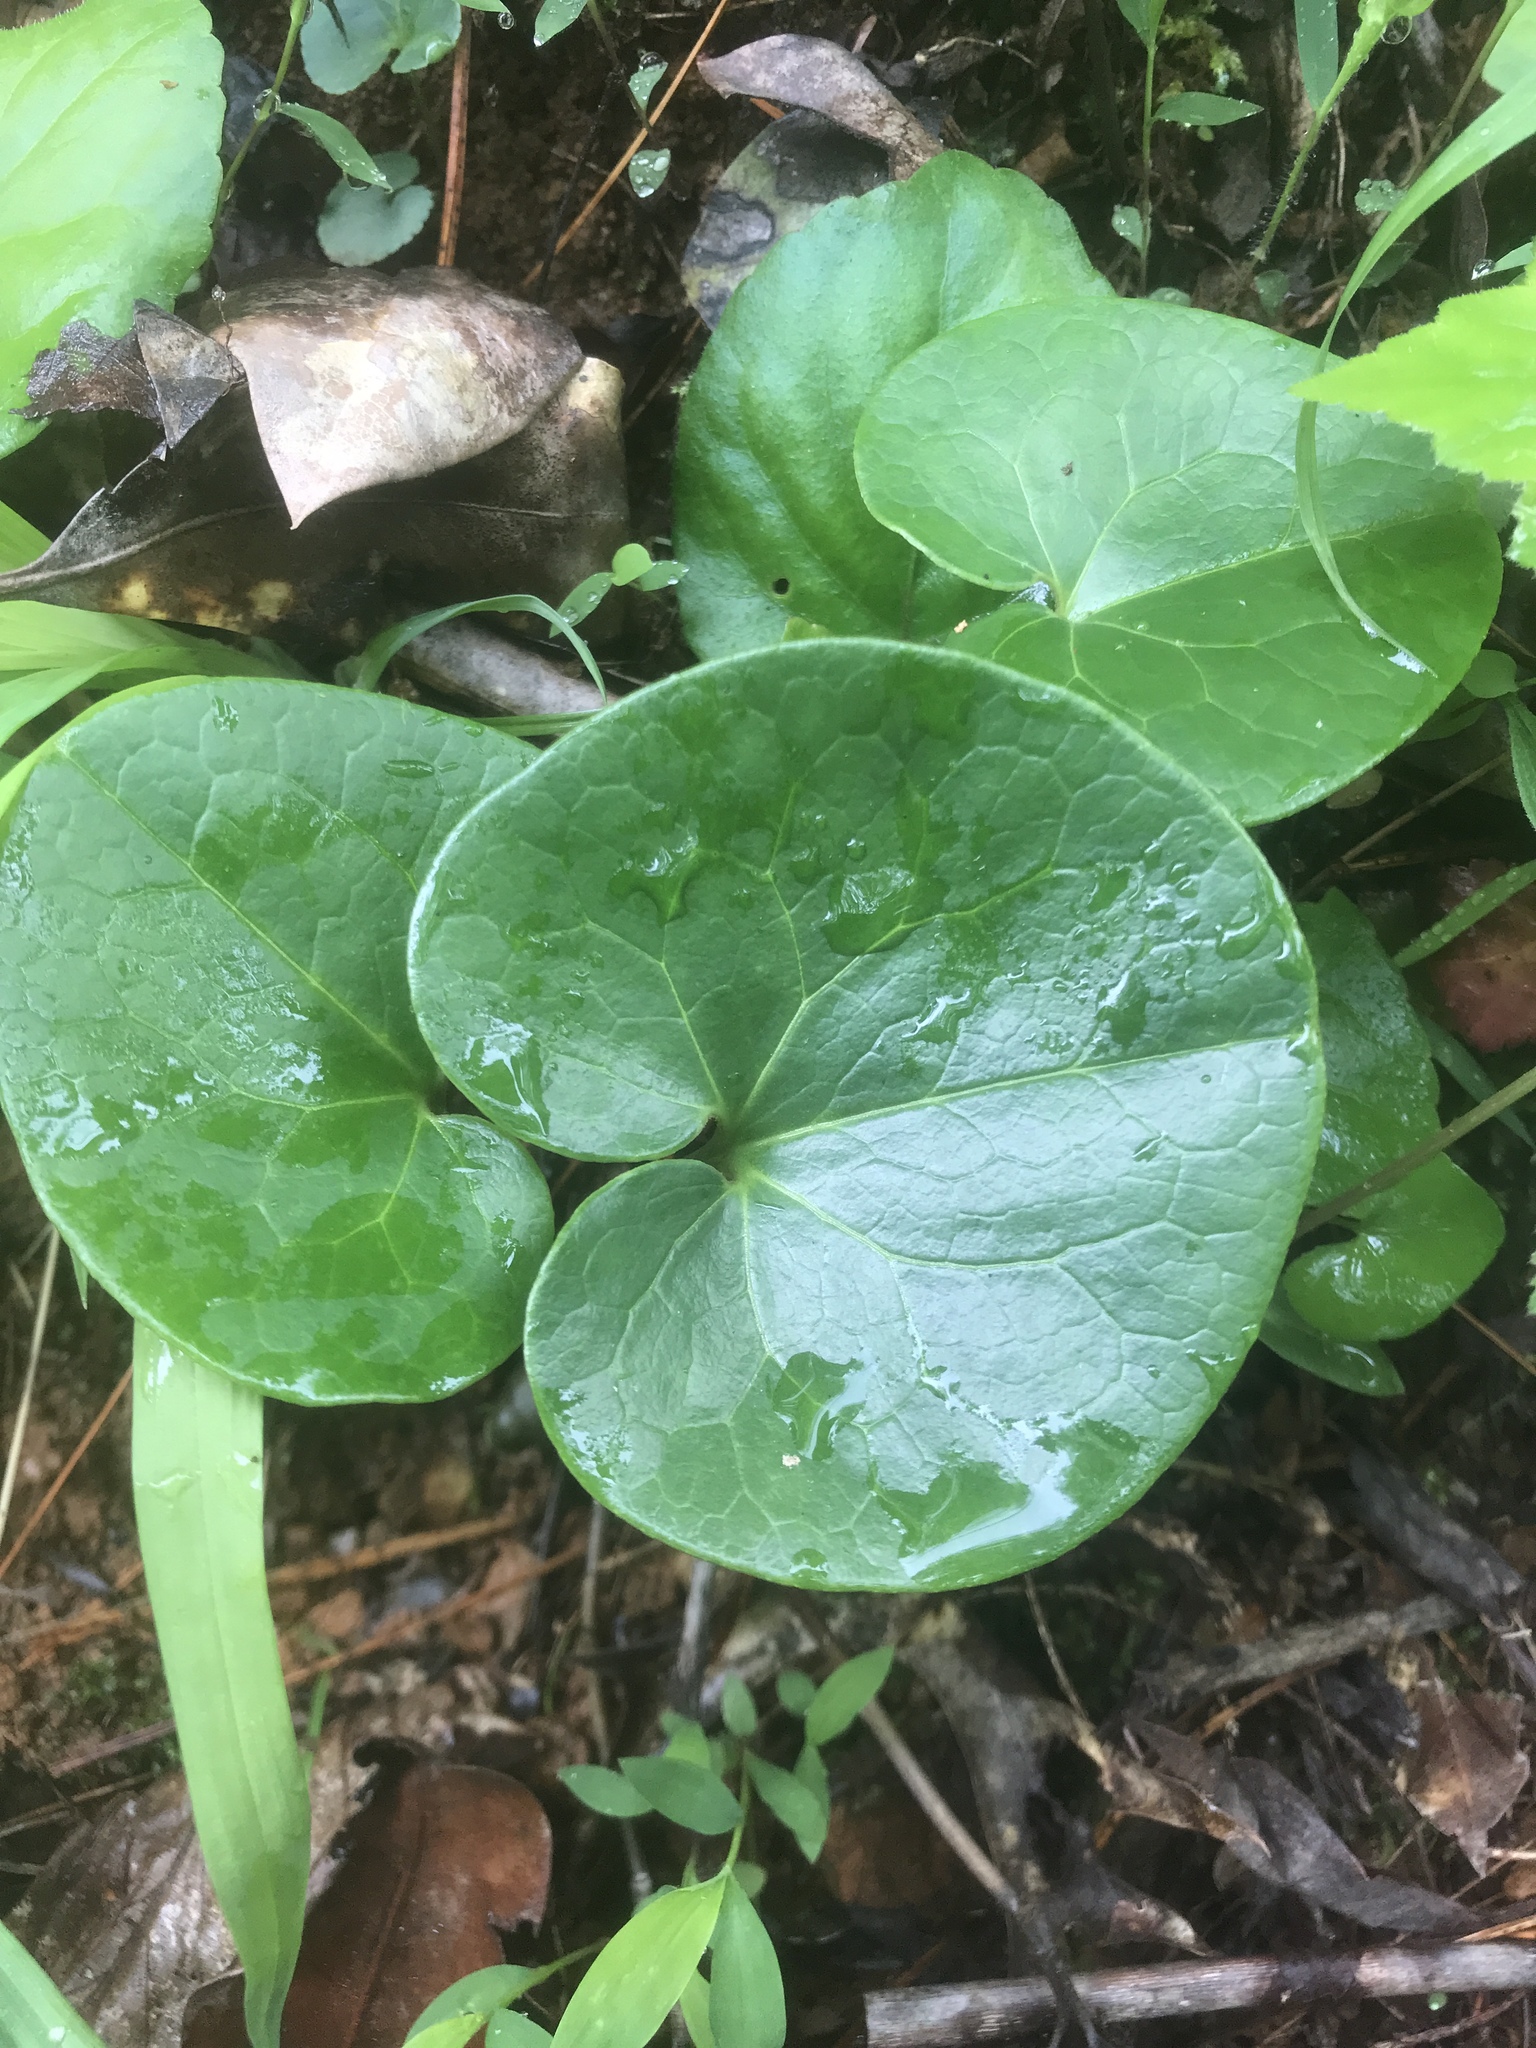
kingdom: Plantae
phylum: Tracheophyta
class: Magnoliopsida
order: Piperales
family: Aristolochiaceae
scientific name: Aristolochiaceae
